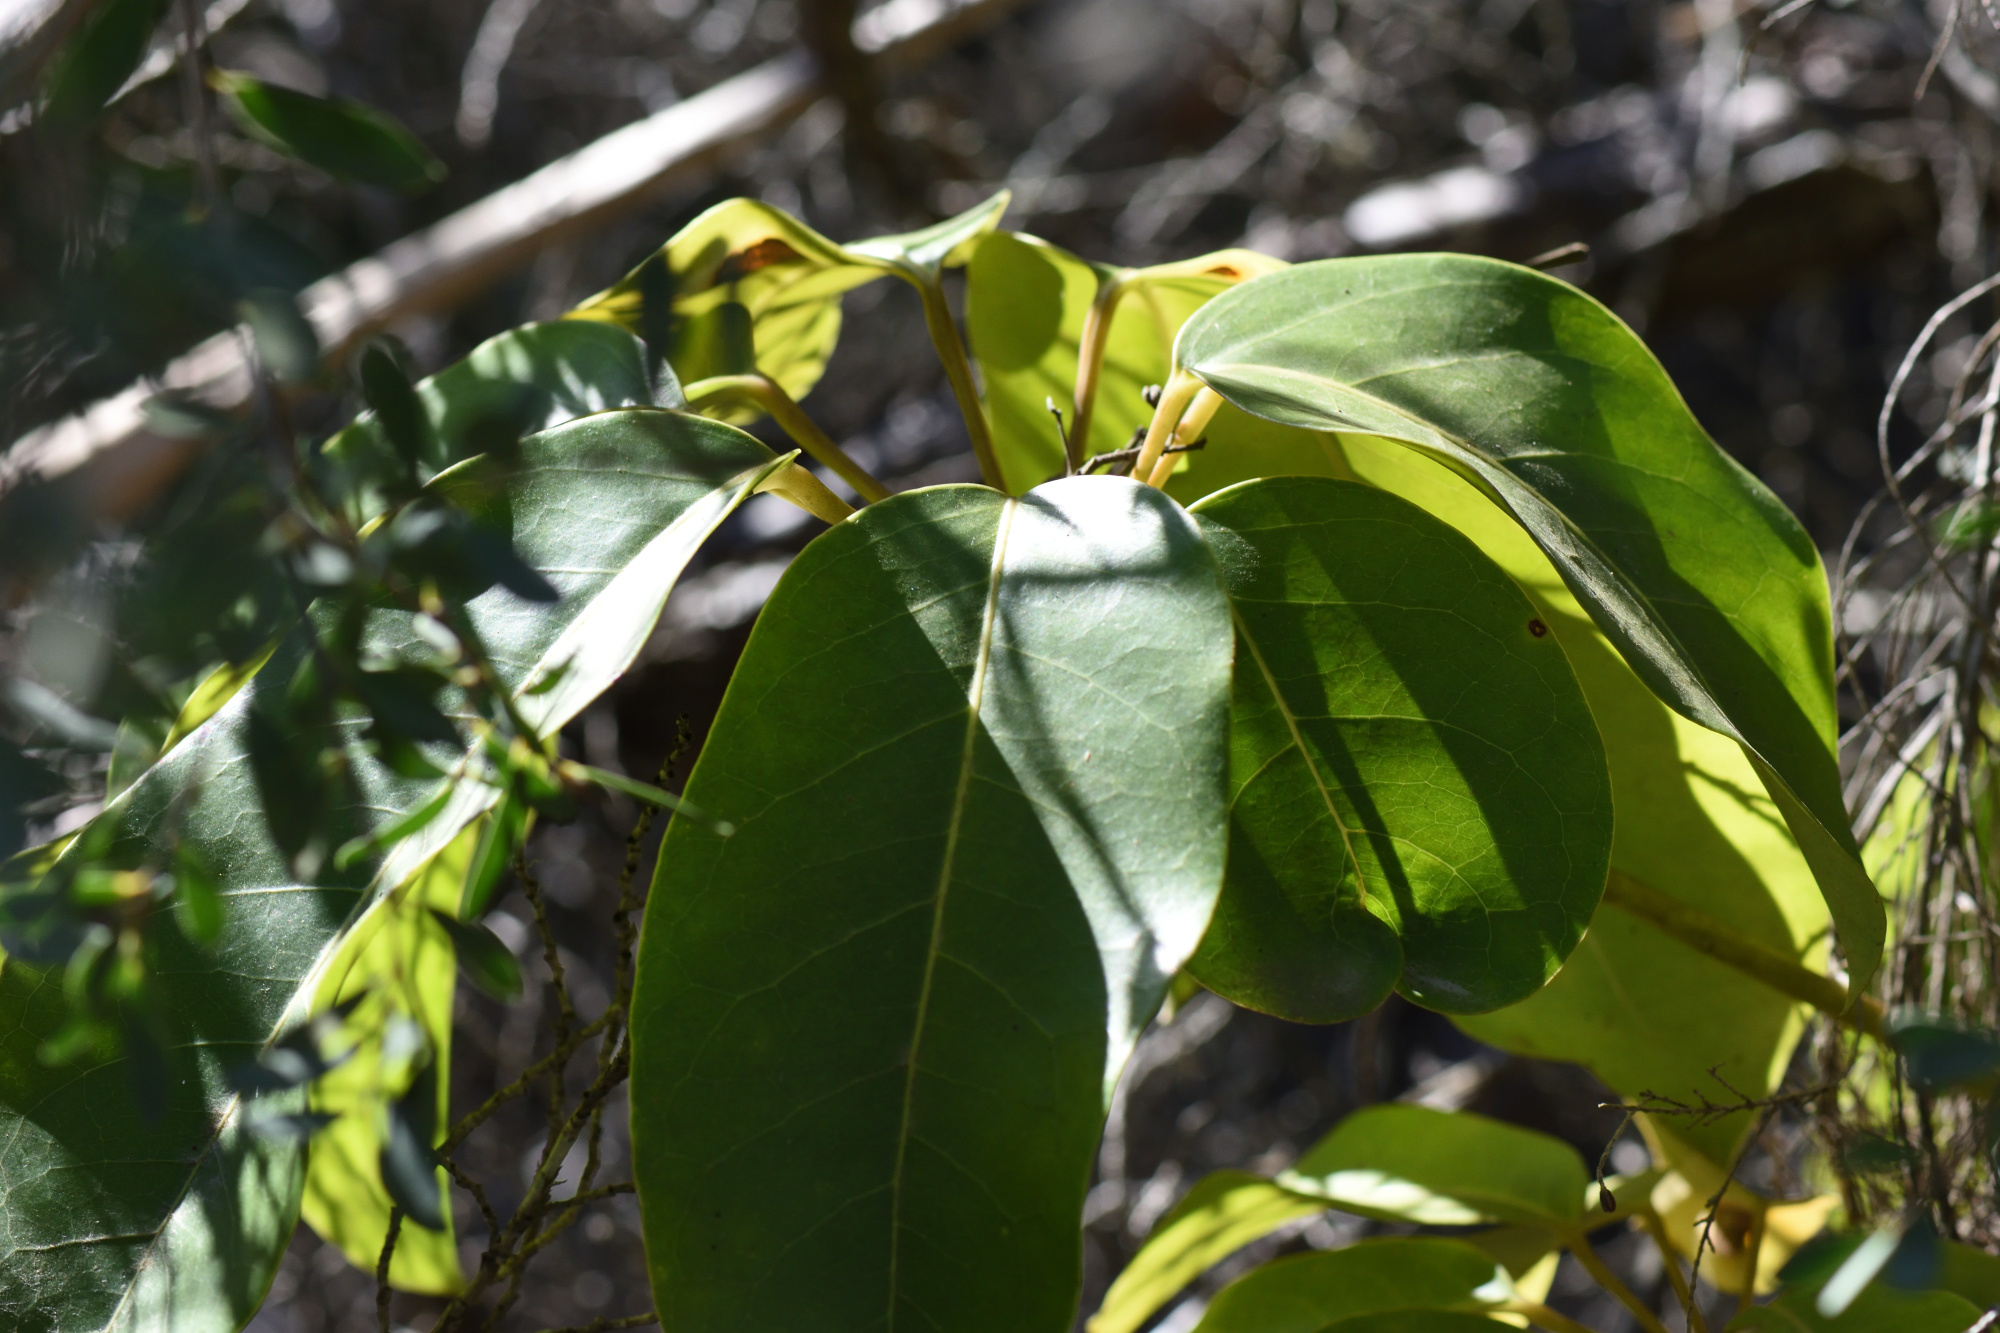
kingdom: Plantae
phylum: Tracheophyta
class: Magnoliopsida
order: Apiales
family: Araliaceae
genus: Heptapleurum
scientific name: Heptapleurum actinophyllum
